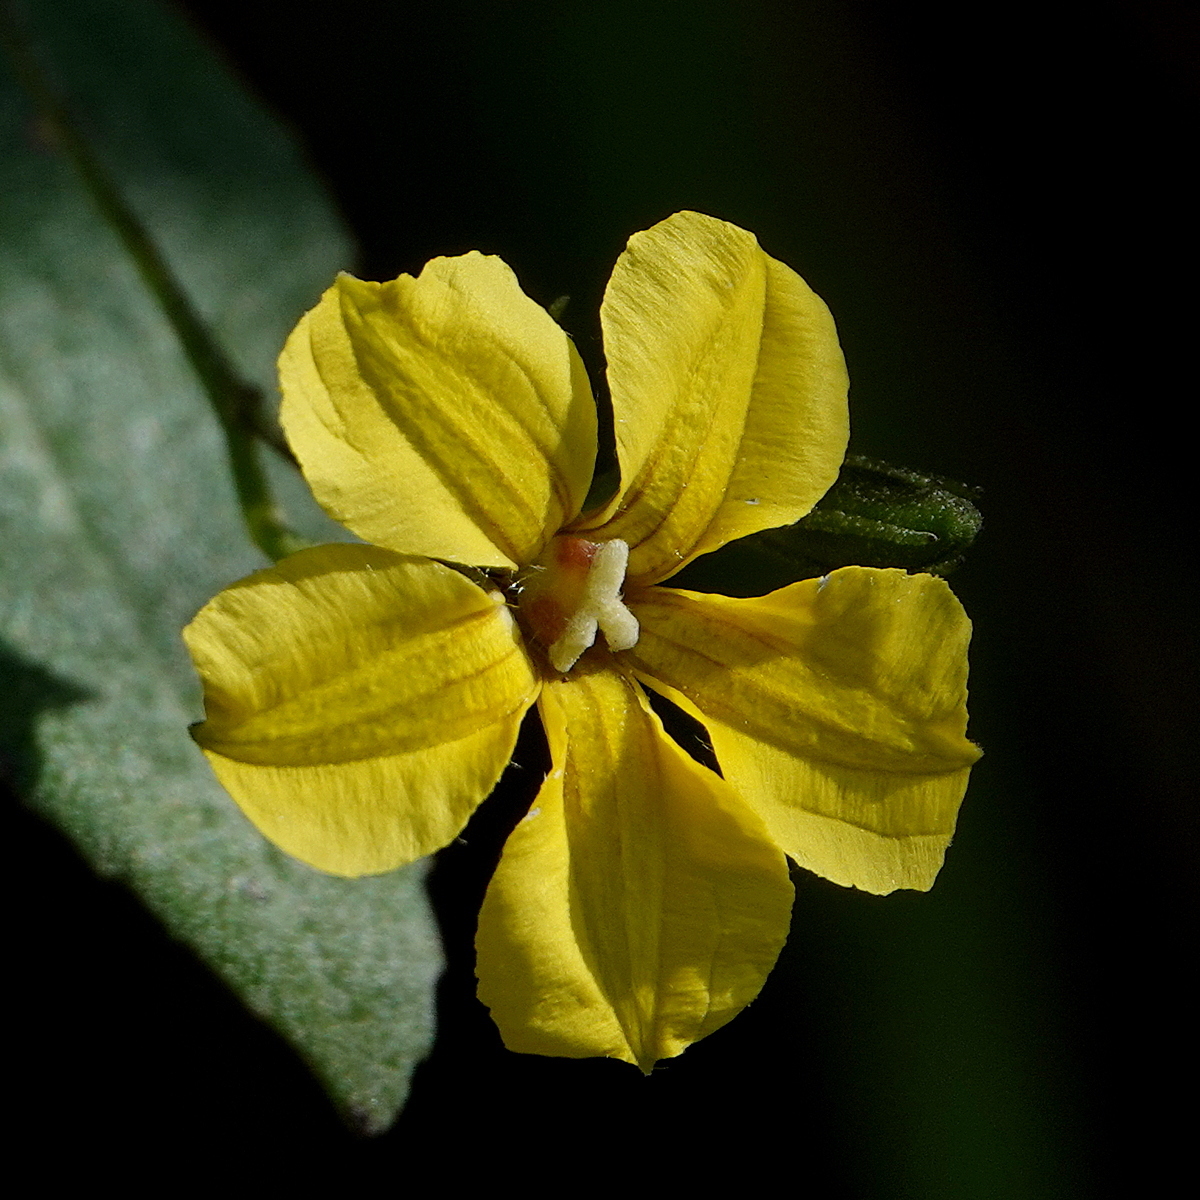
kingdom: Plantae
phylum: Tracheophyta
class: Magnoliopsida
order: Asterales
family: Goodeniaceae
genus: Goodenia
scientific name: Goodenia ovata
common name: Hop goodenia
